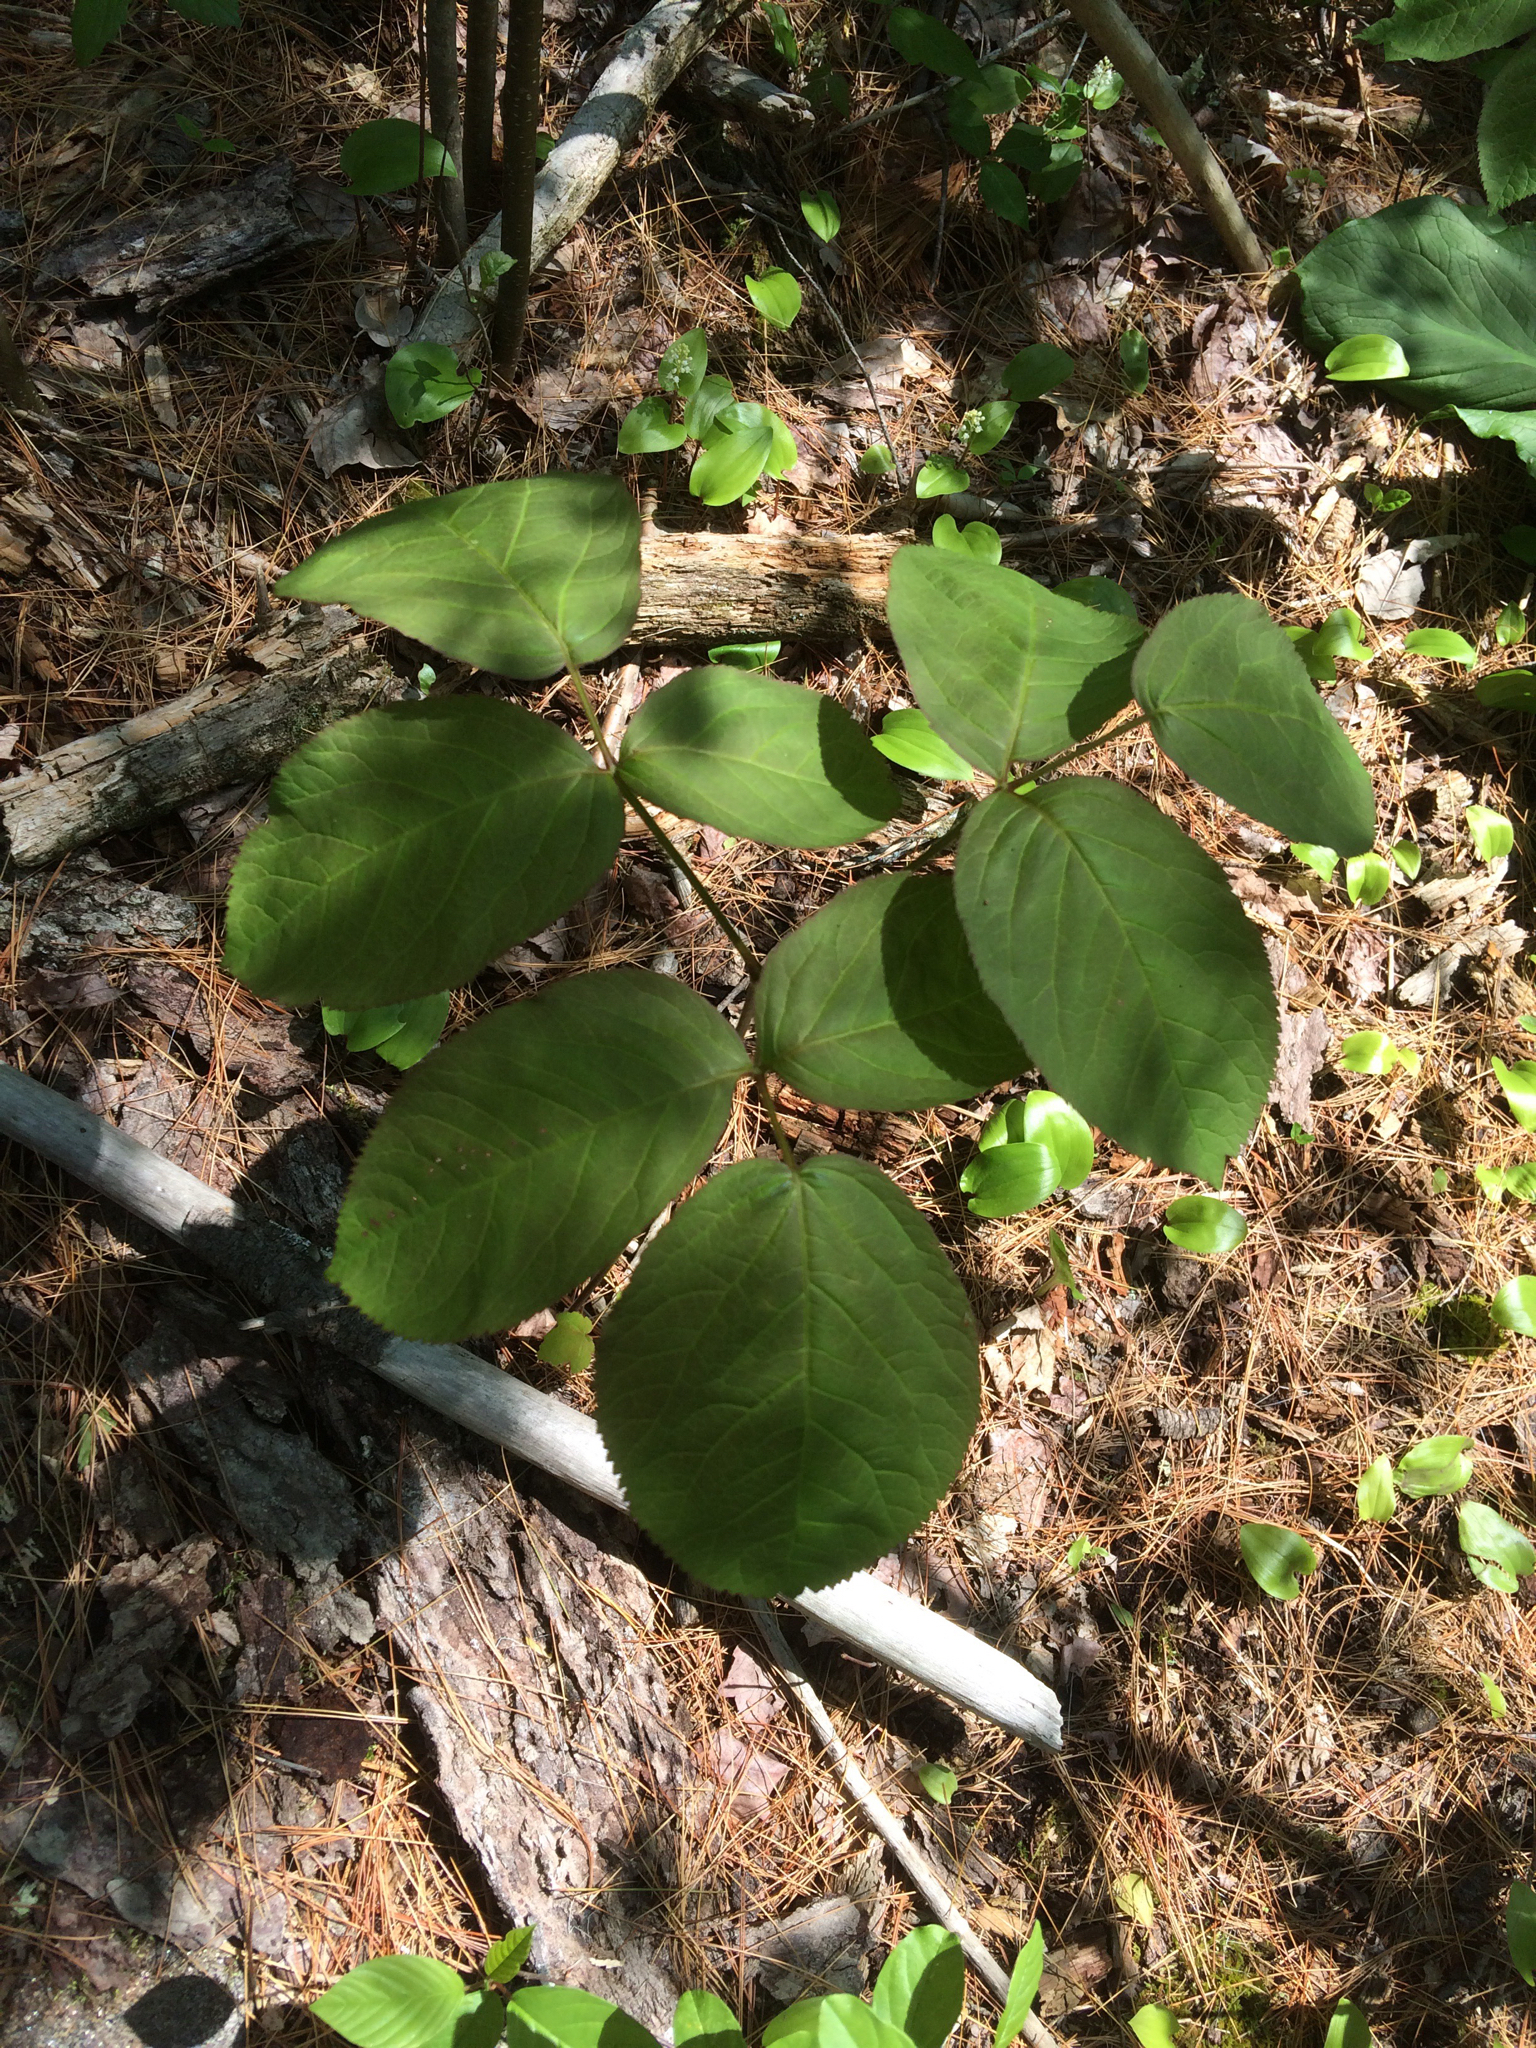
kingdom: Plantae
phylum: Tracheophyta
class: Magnoliopsida
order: Apiales
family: Araliaceae
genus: Aralia
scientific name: Aralia nudicaulis
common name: Wild sarsaparilla
